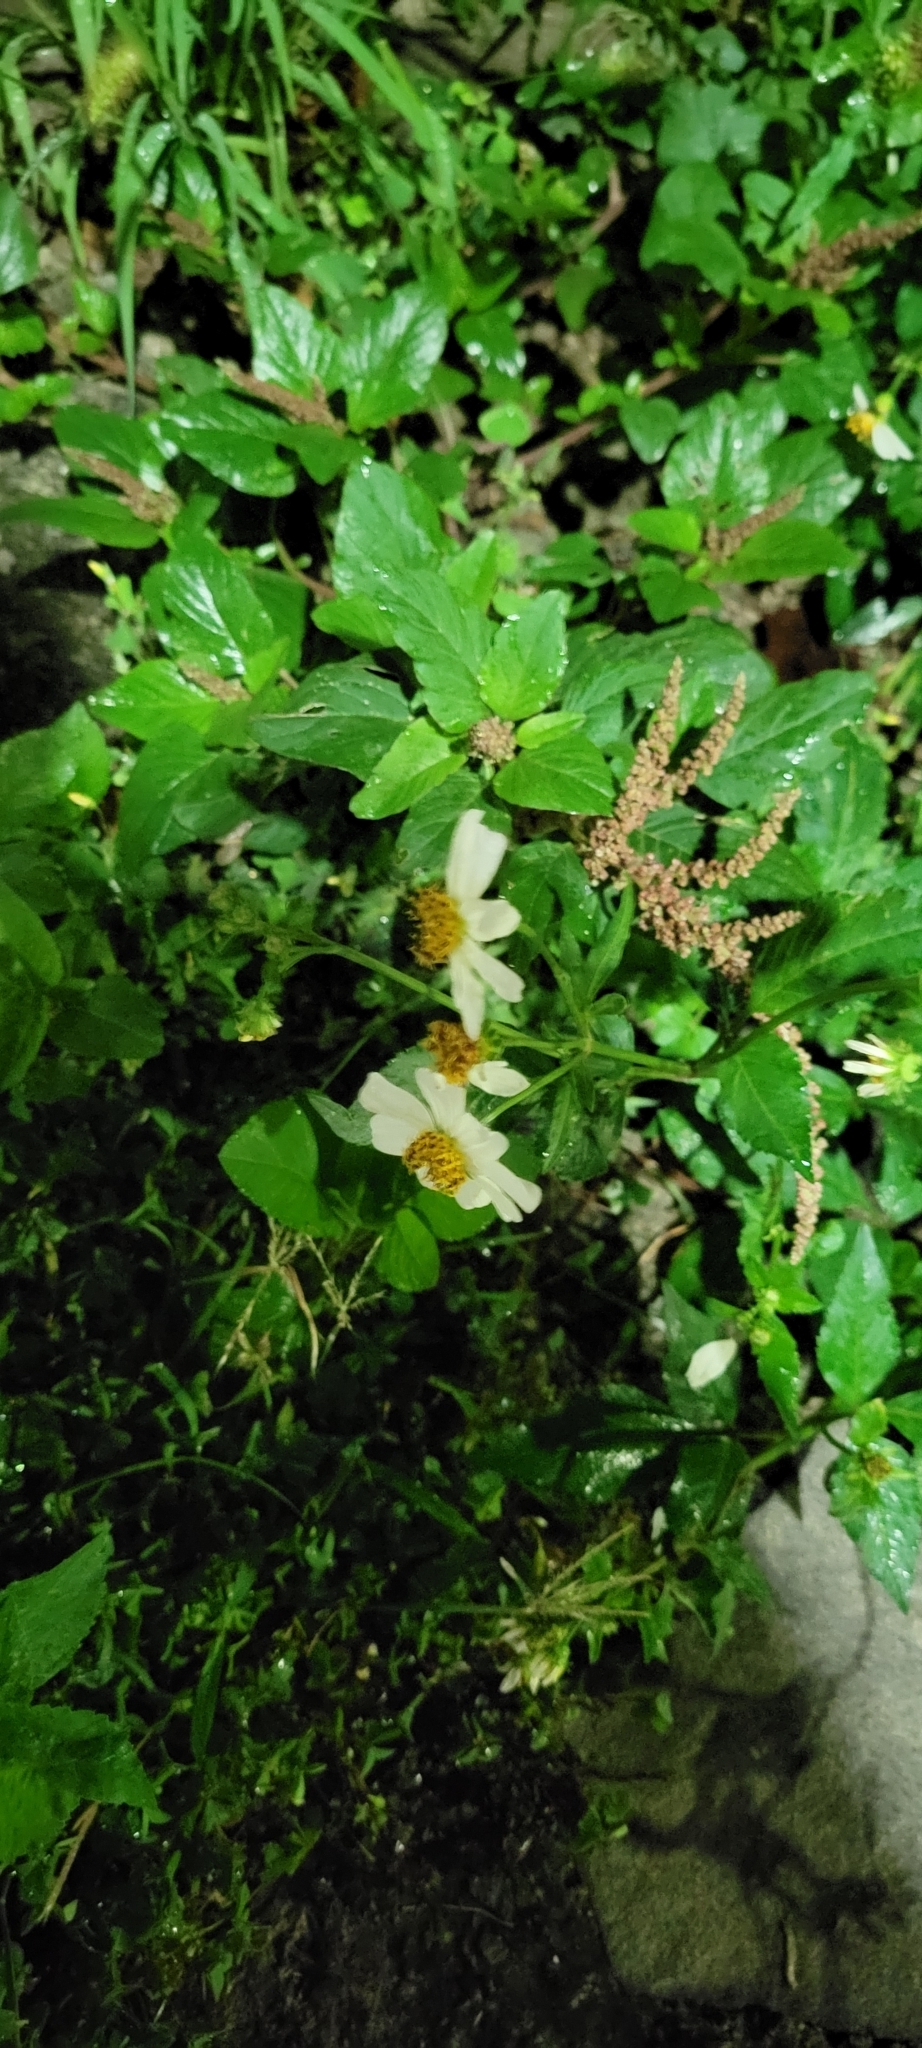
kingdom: Plantae
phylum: Tracheophyta
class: Magnoliopsida
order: Asterales
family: Asteraceae
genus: Bidens
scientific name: Bidens alba
